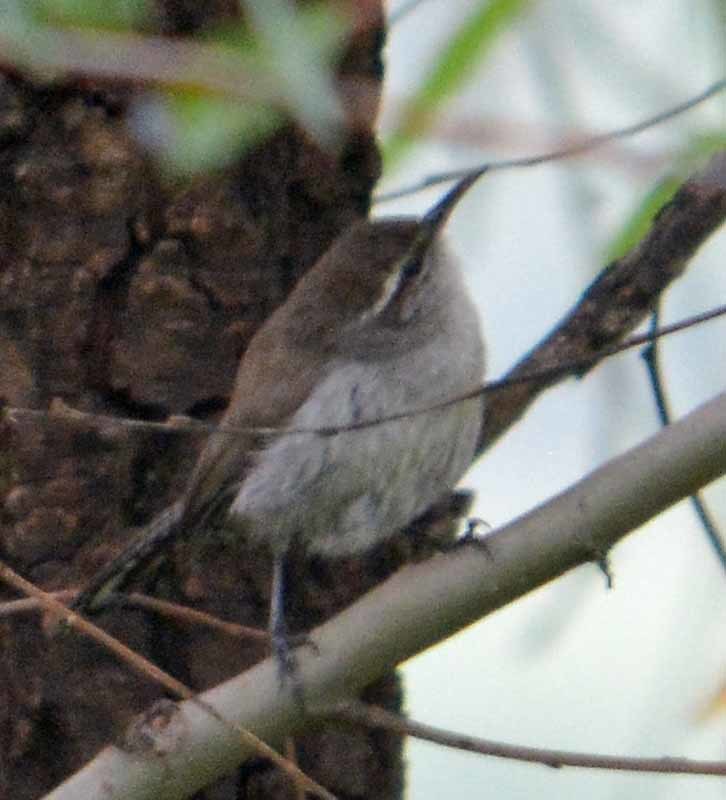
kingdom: Animalia
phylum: Chordata
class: Aves
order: Passeriformes
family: Troglodytidae
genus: Thryomanes
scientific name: Thryomanes bewickii
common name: Bewick's wren
